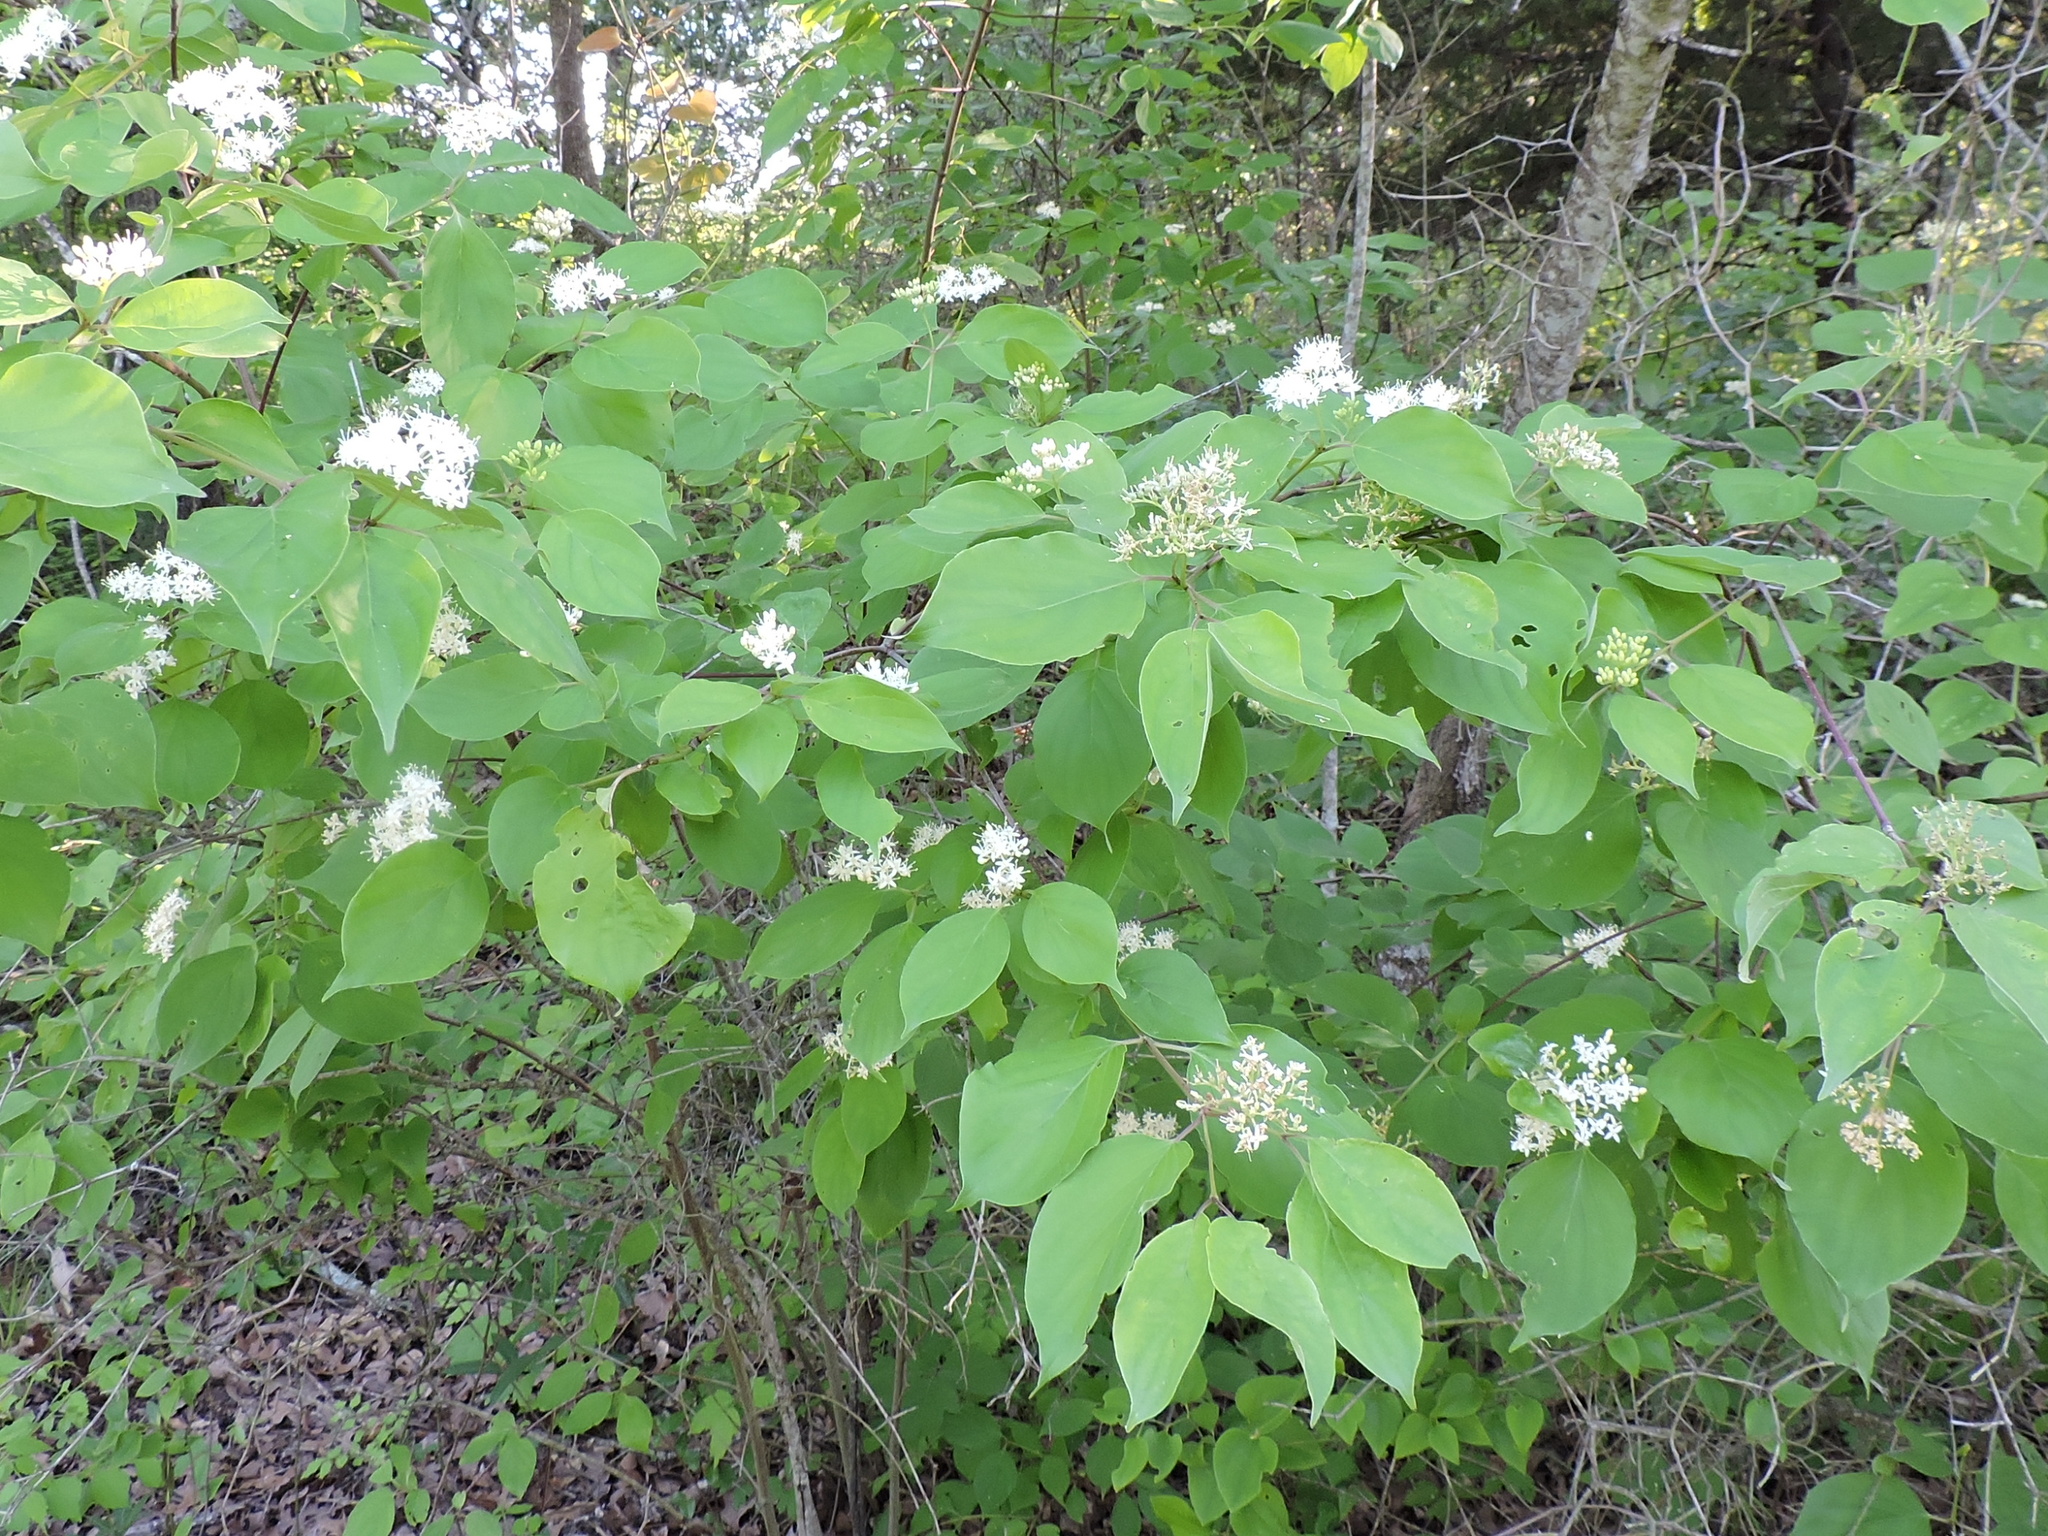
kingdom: Plantae
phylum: Tracheophyta
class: Magnoliopsida
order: Cornales
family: Cornaceae
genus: Cornus
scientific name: Cornus drummondii
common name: Rough-leaf dogwood
